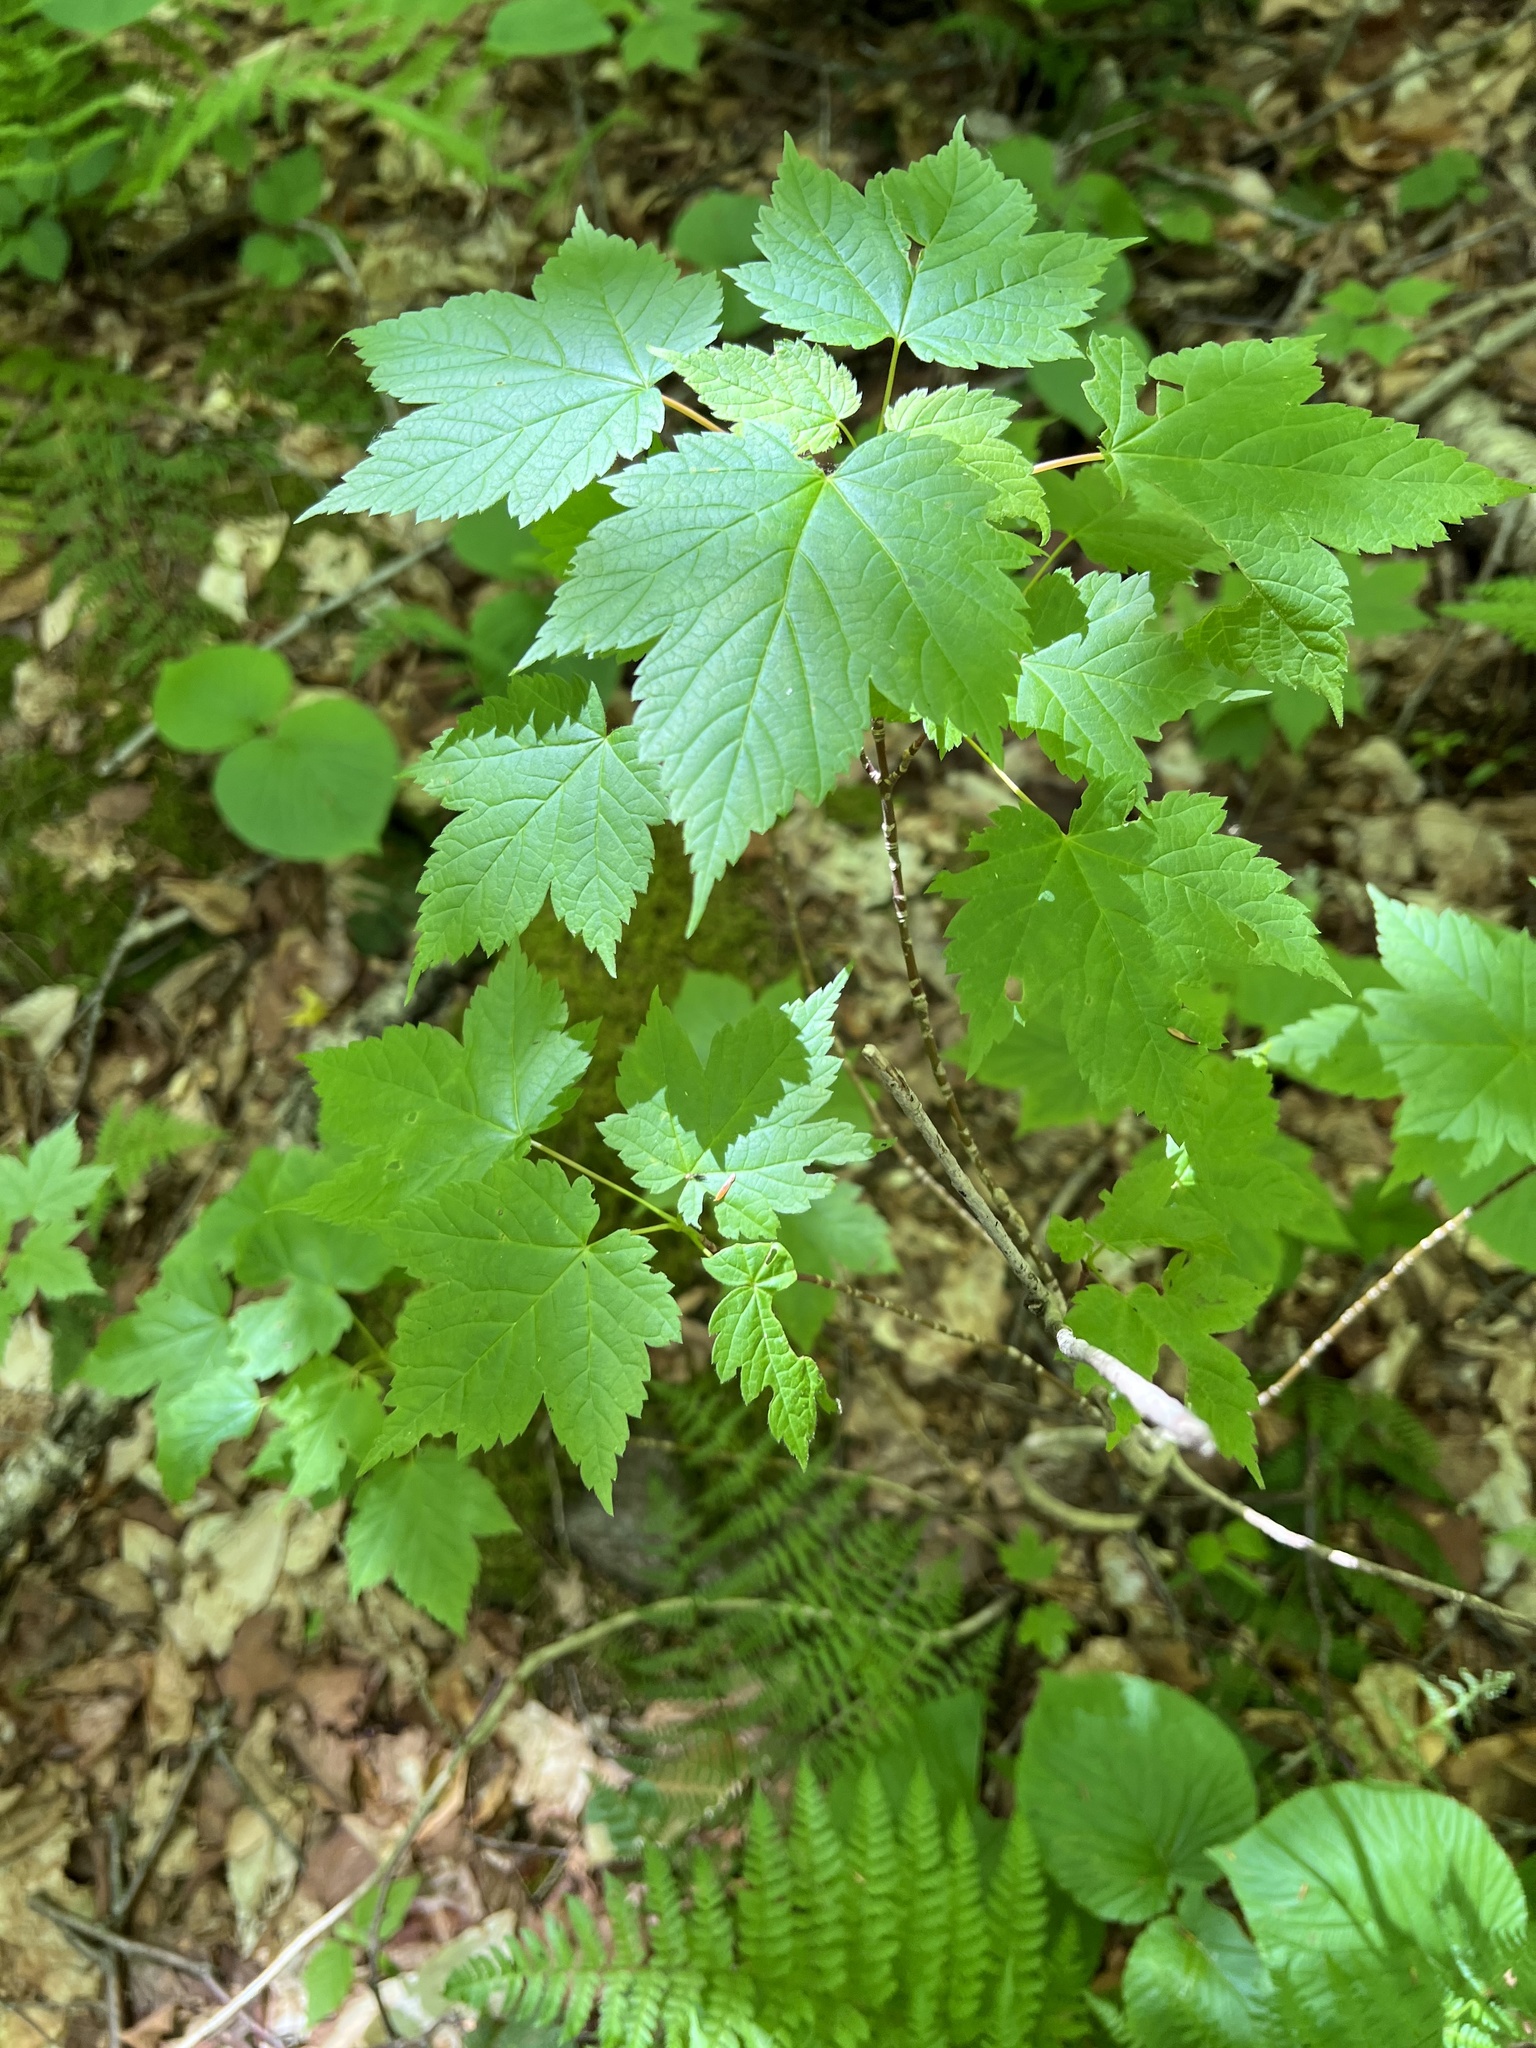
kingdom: Plantae
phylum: Tracheophyta
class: Magnoliopsida
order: Sapindales
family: Sapindaceae
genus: Acer
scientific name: Acer spicatum
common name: Mountain maple
